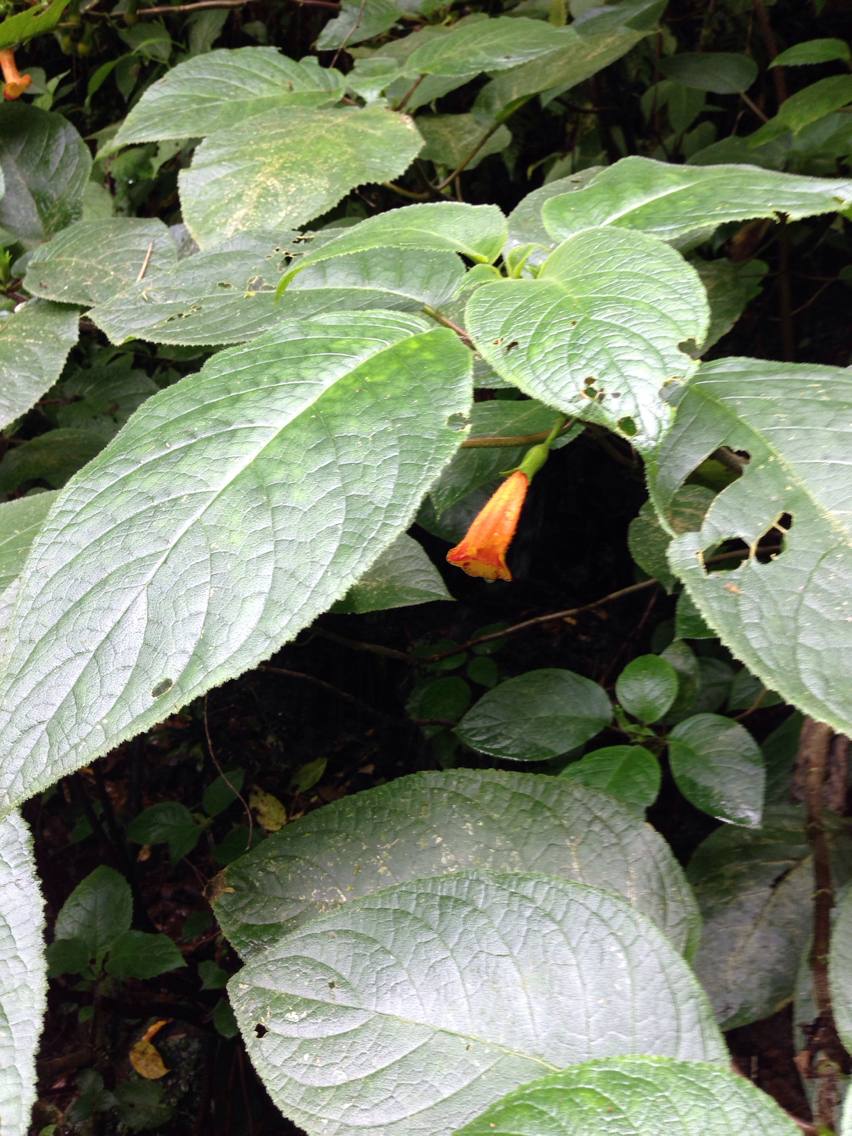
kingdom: Plantae
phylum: Tracheophyta
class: Magnoliopsida
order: Lamiales
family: Gesneriaceae
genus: Solenophora
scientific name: Solenophora calycosa
